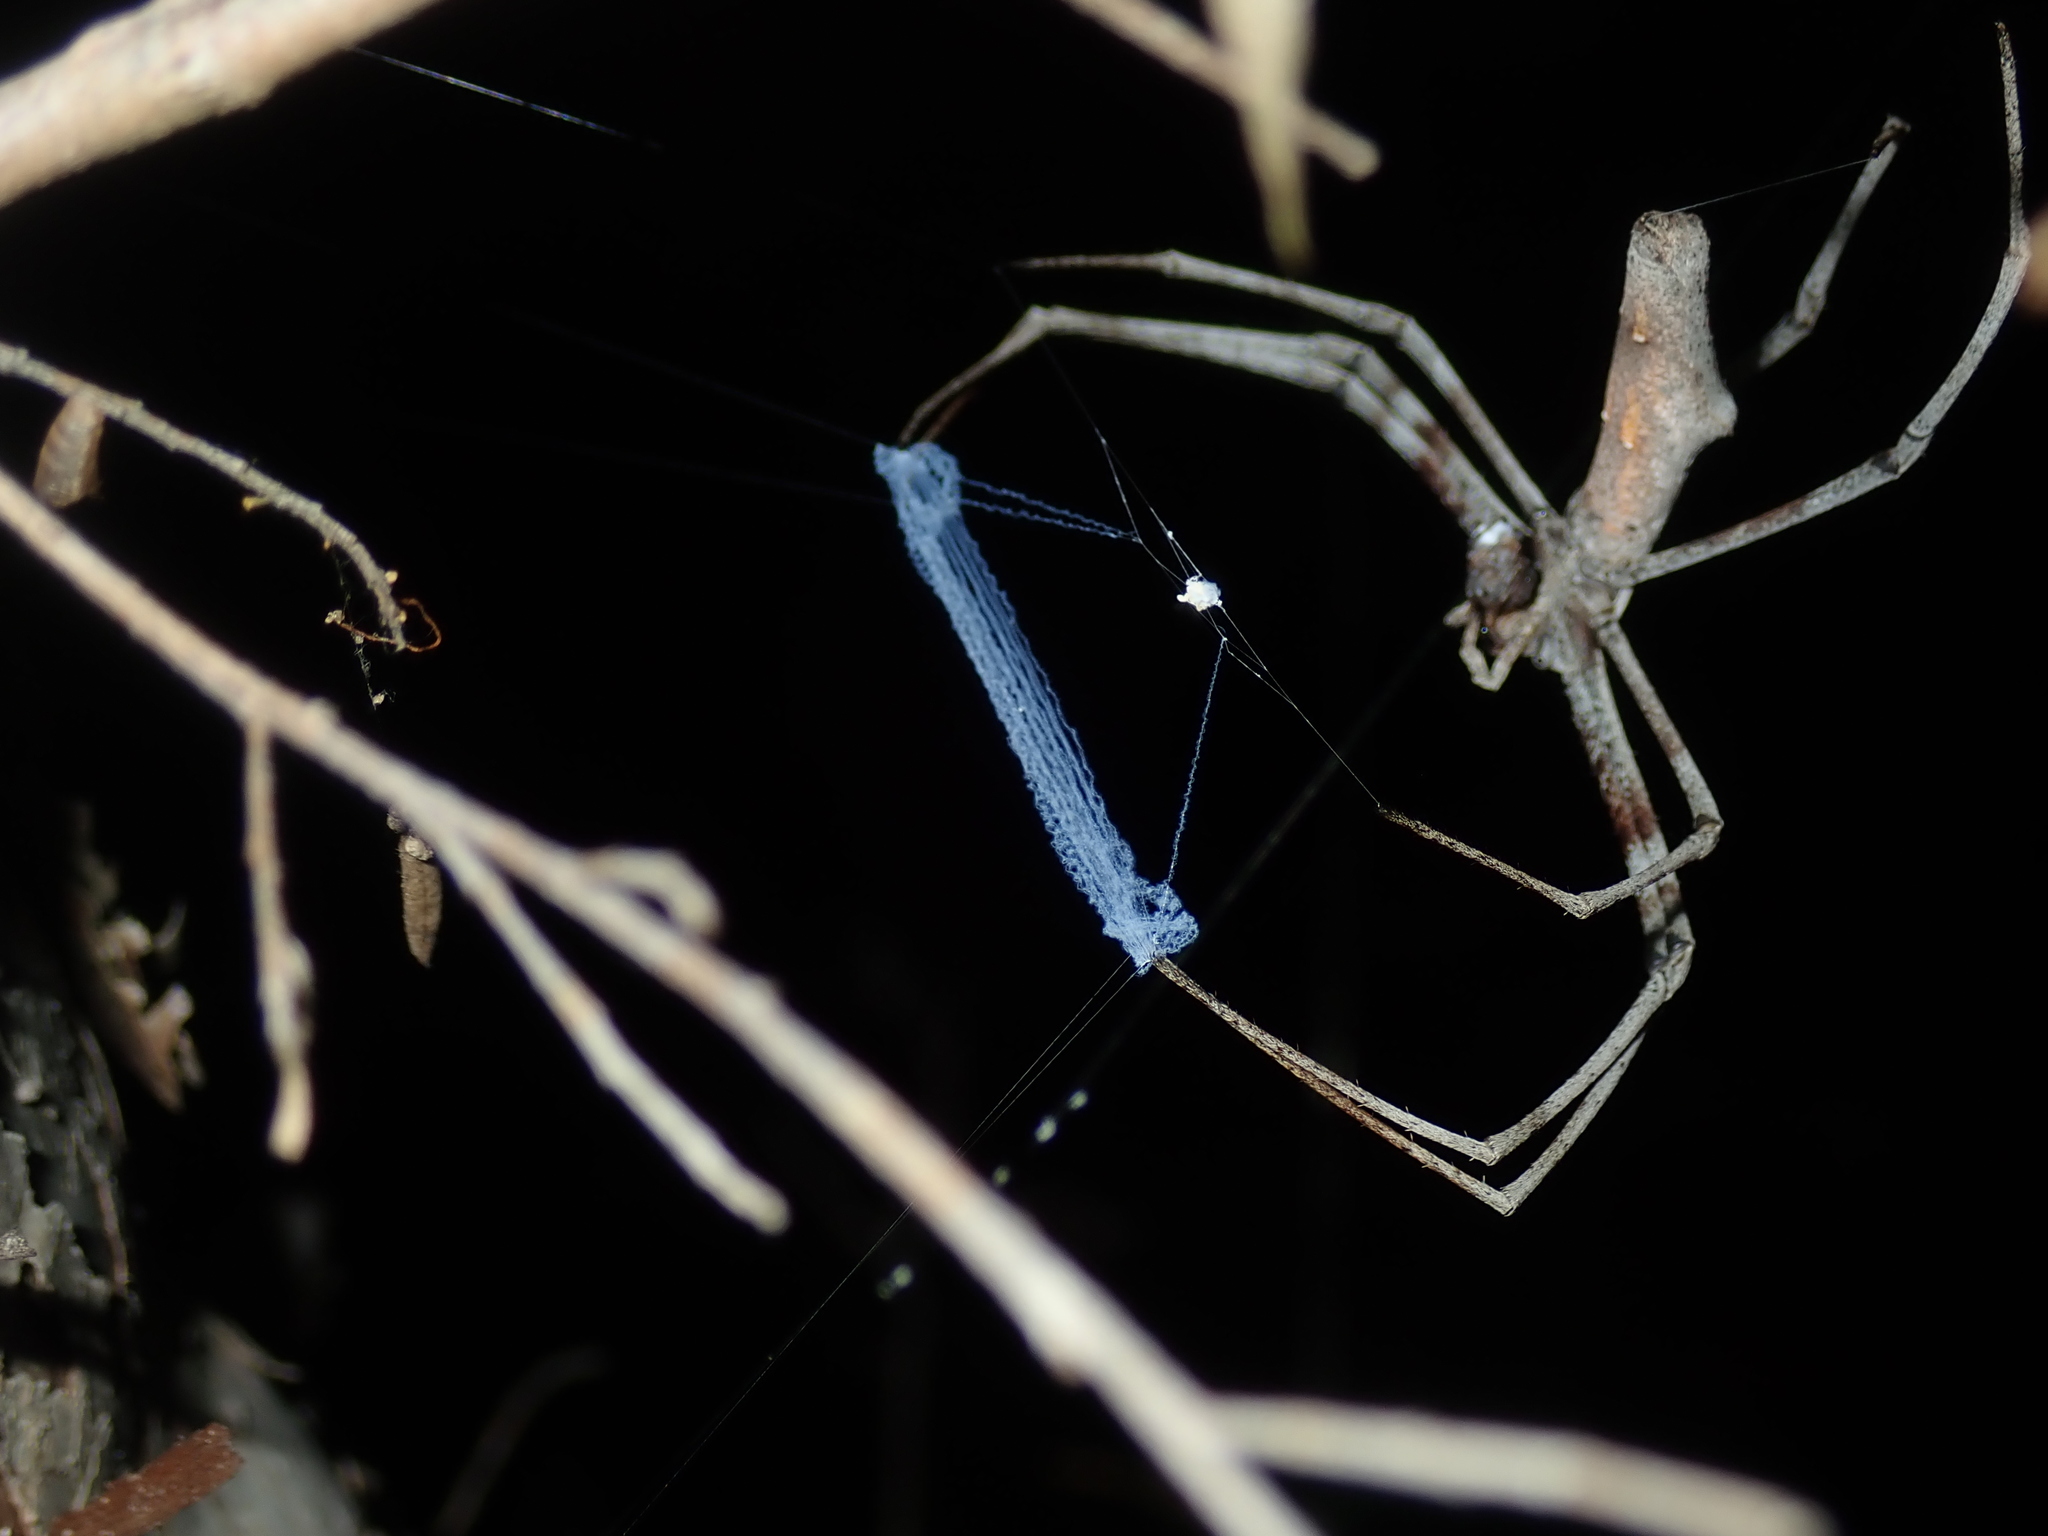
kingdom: Animalia
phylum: Arthropoda
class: Arachnida
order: Araneae
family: Deinopidae
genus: Deinopis
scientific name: Deinopis subrufa
